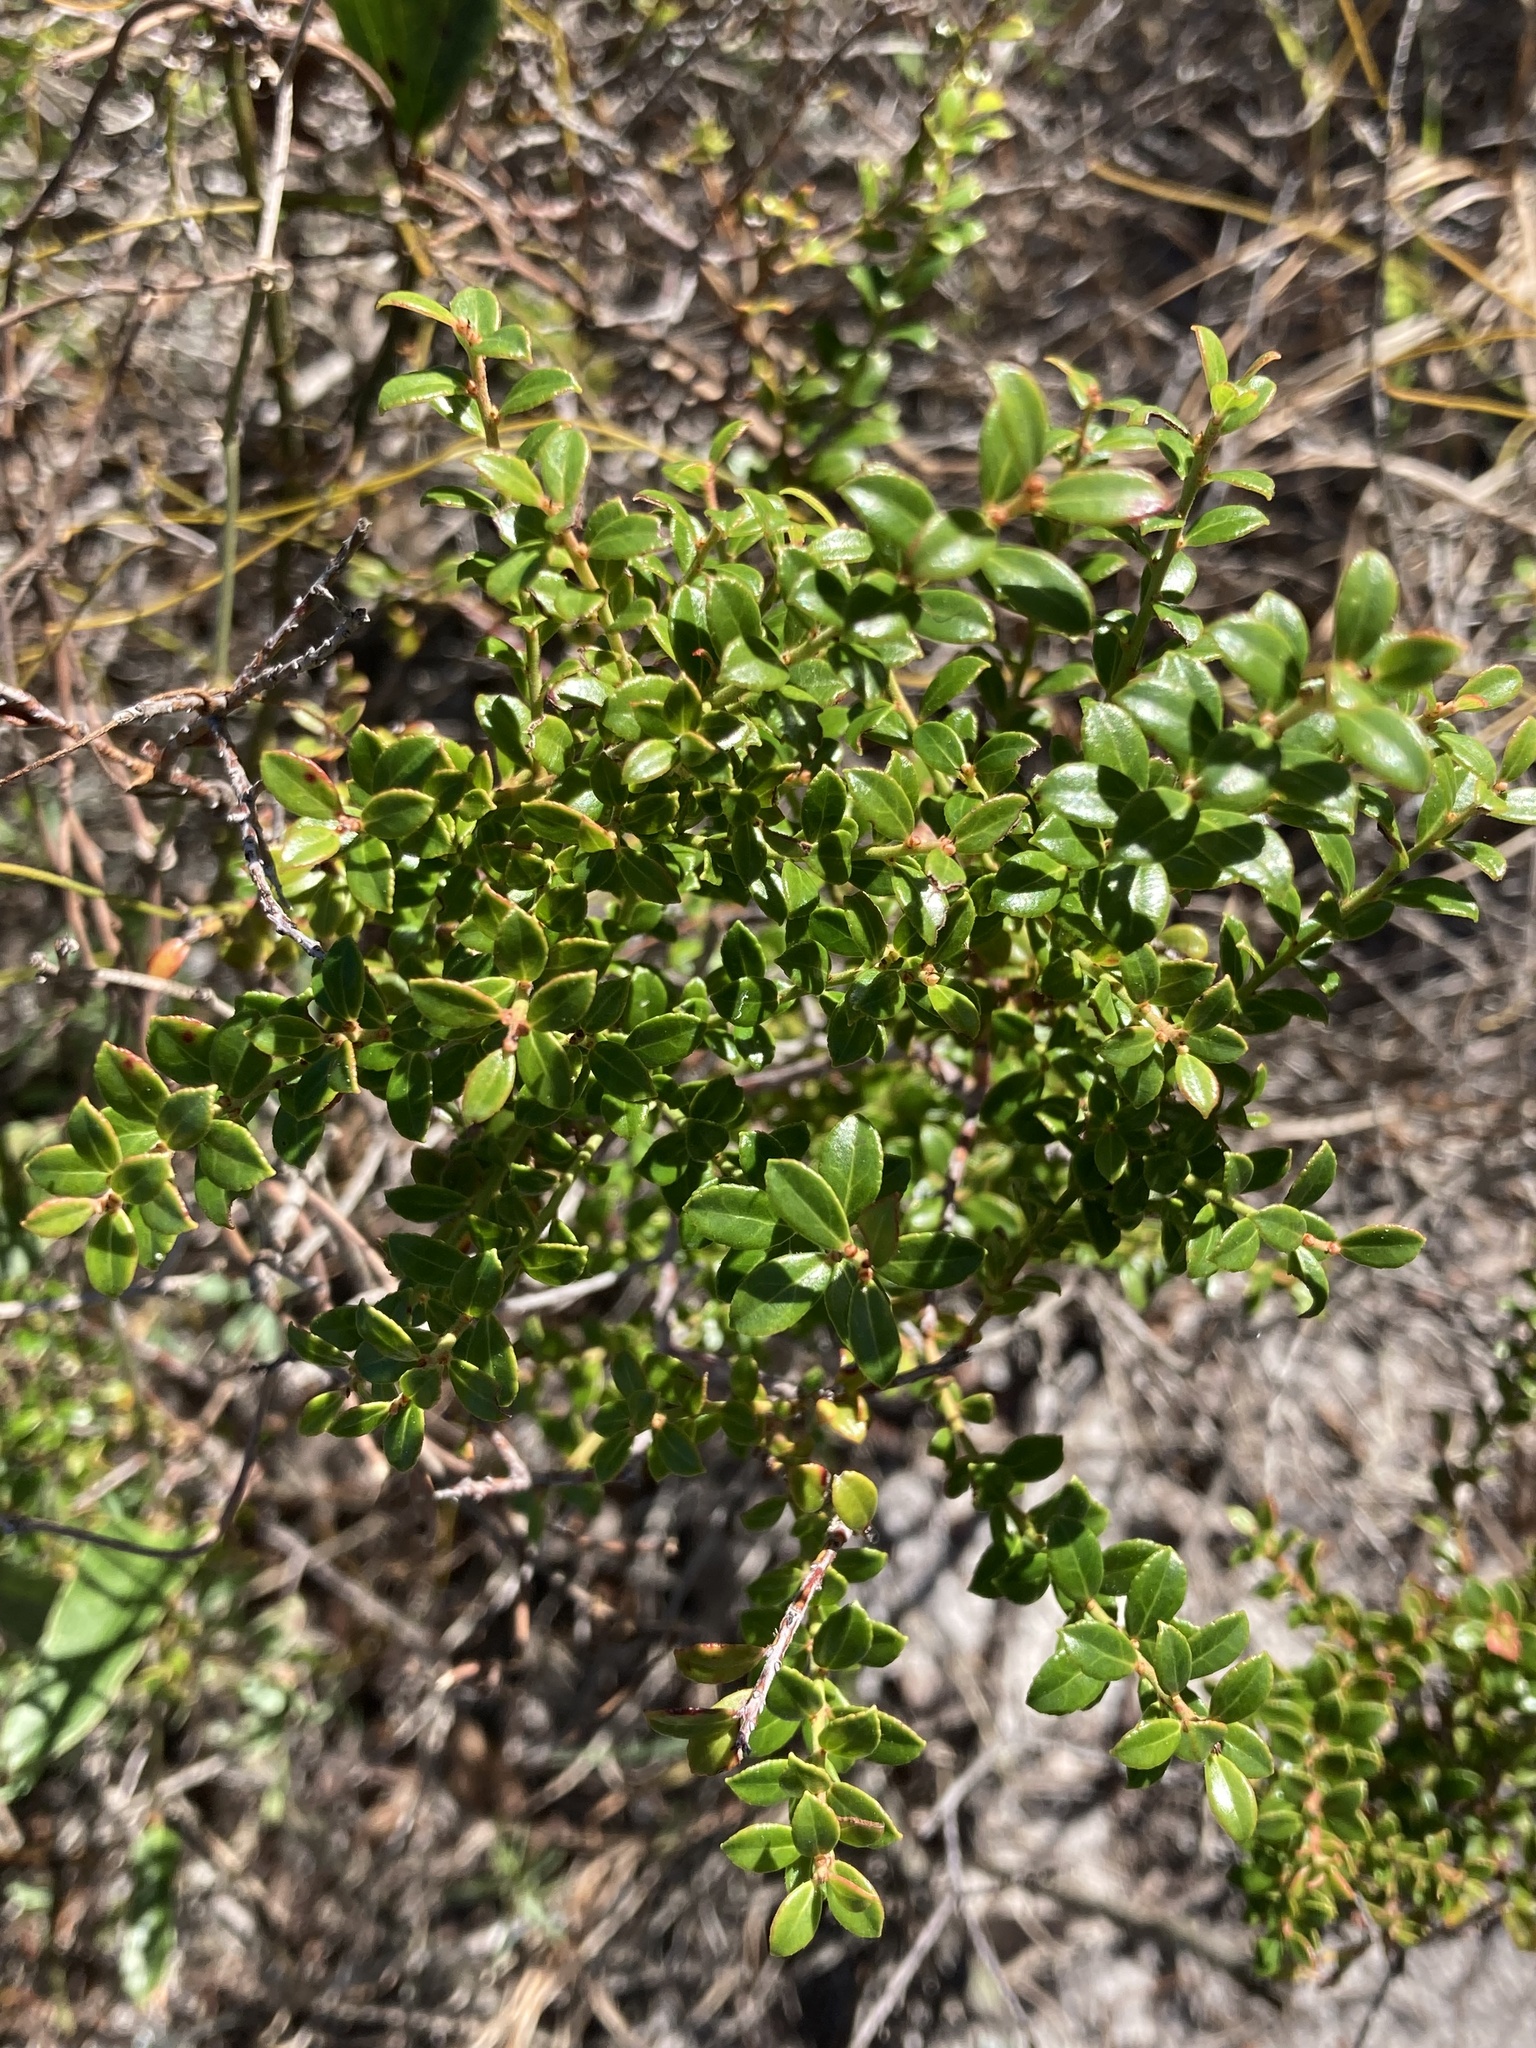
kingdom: Plantae
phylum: Tracheophyta
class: Magnoliopsida
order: Ericales
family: Ericaceae
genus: Vaccinium
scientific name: Vaccinium myrsinites
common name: Evergreen blueberry
